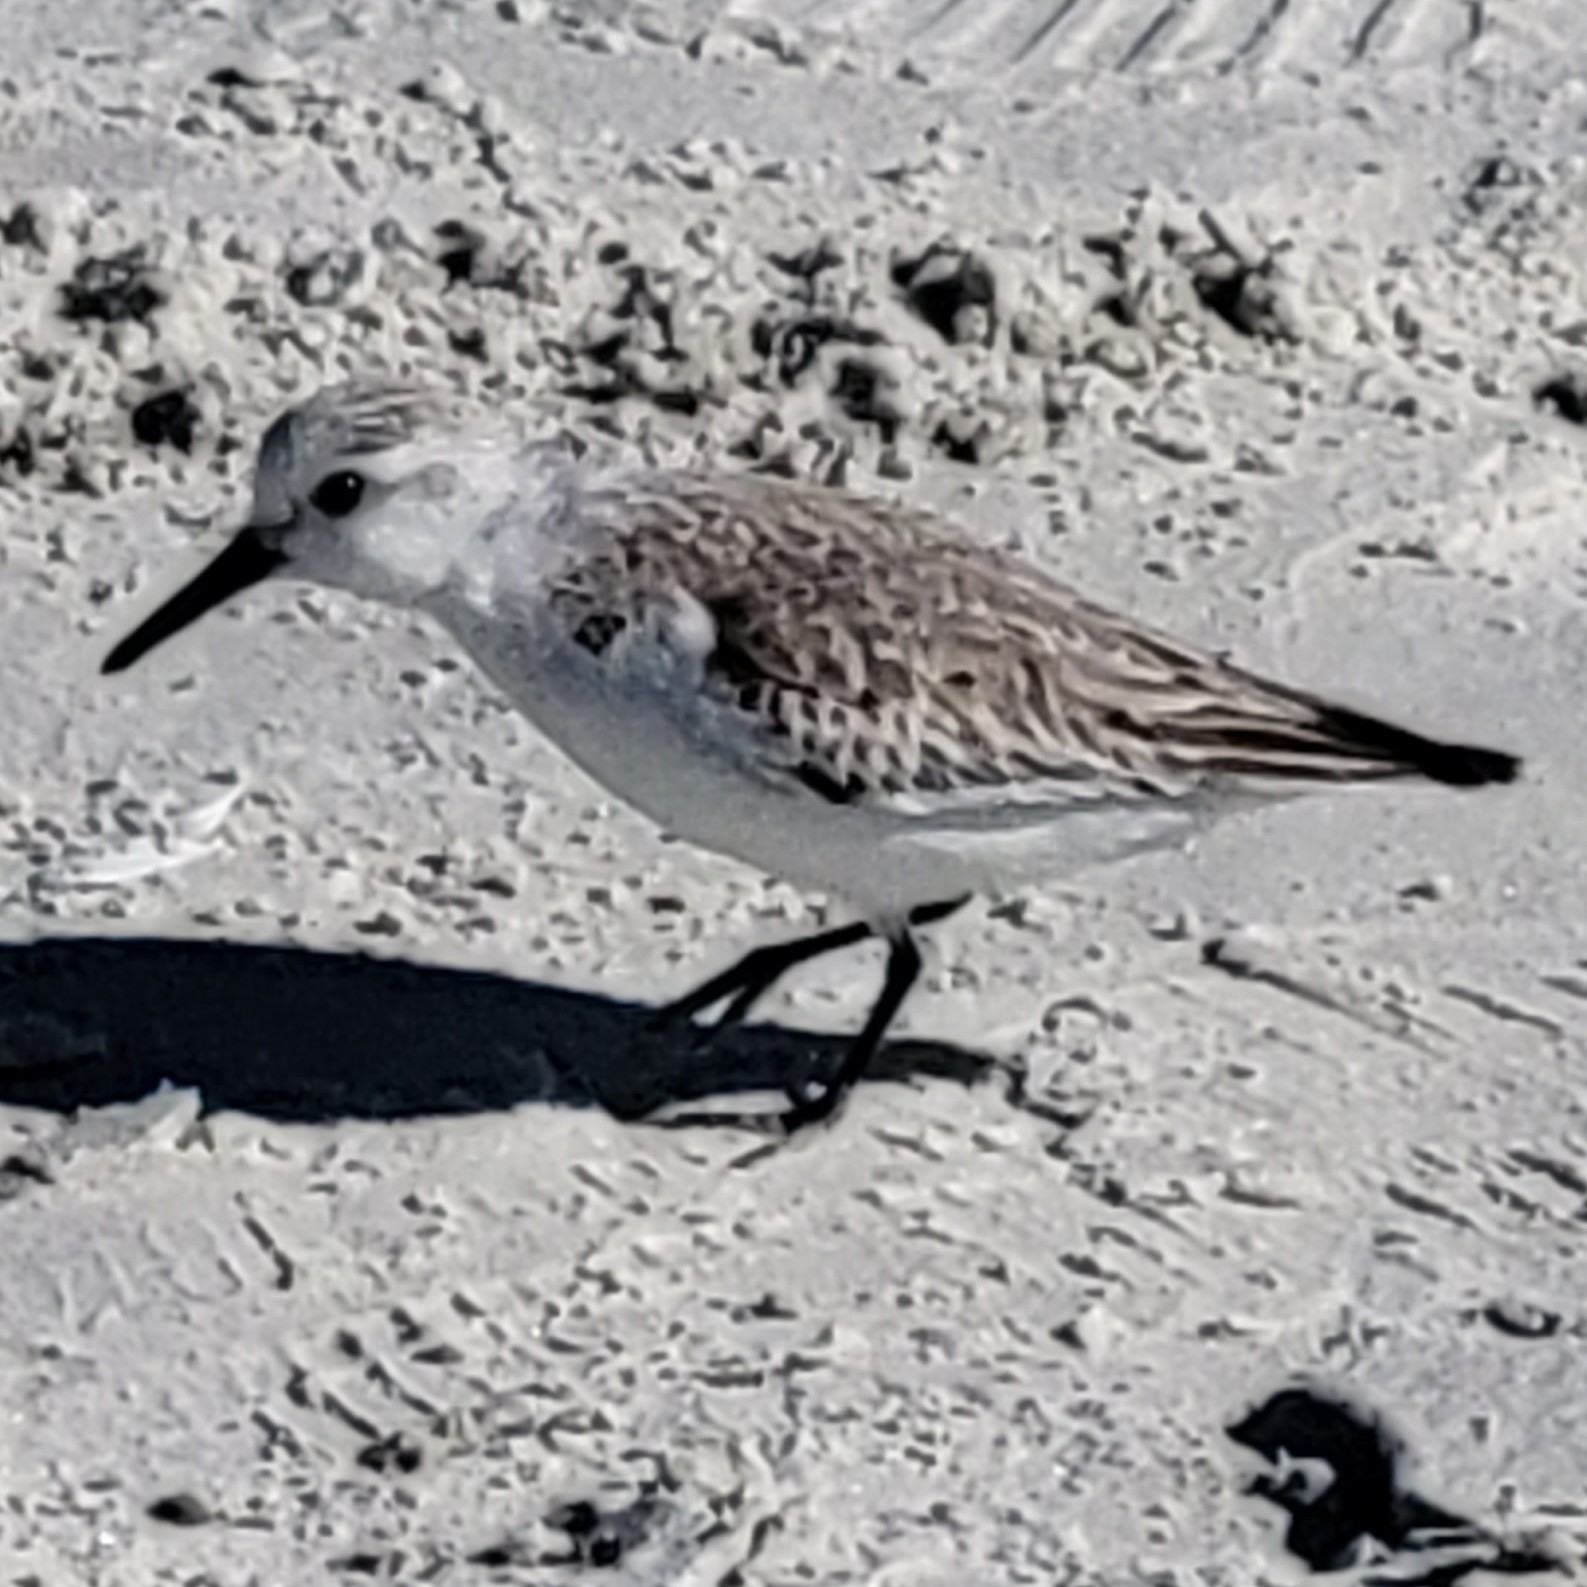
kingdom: Animalia
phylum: Chordata
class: Aves
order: Charadriiformes
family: Scolopacidae
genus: Calidris
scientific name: Calidris alba
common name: Sanderling
